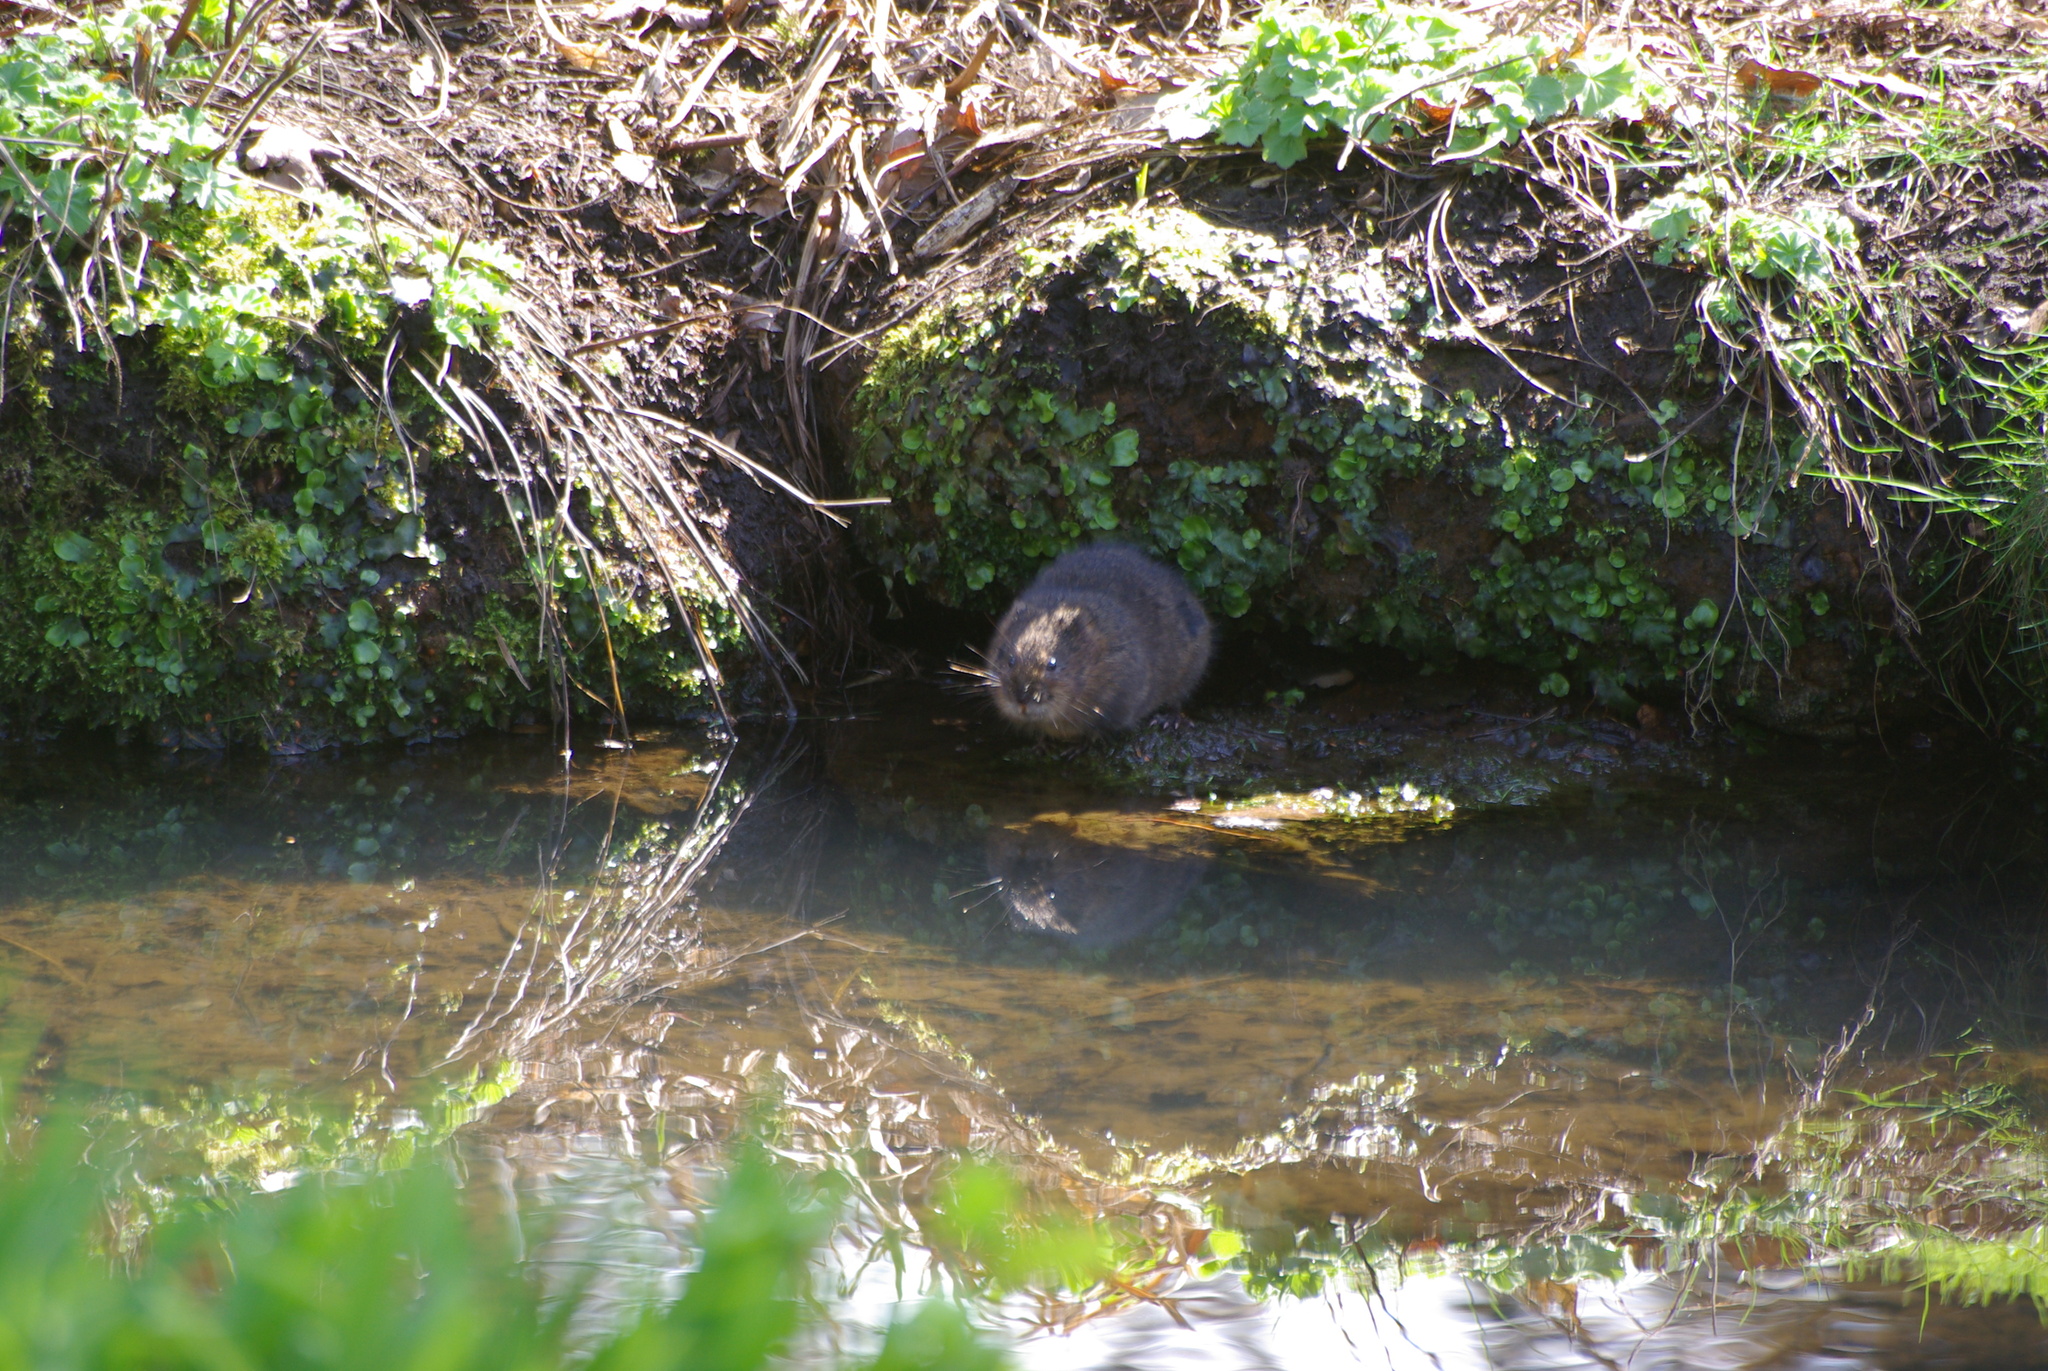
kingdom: Animalia
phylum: Chordata
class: Mammalia
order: Rodentia
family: Cricetidae
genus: Arvicola
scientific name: Arvicola amphibius
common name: European water vole
